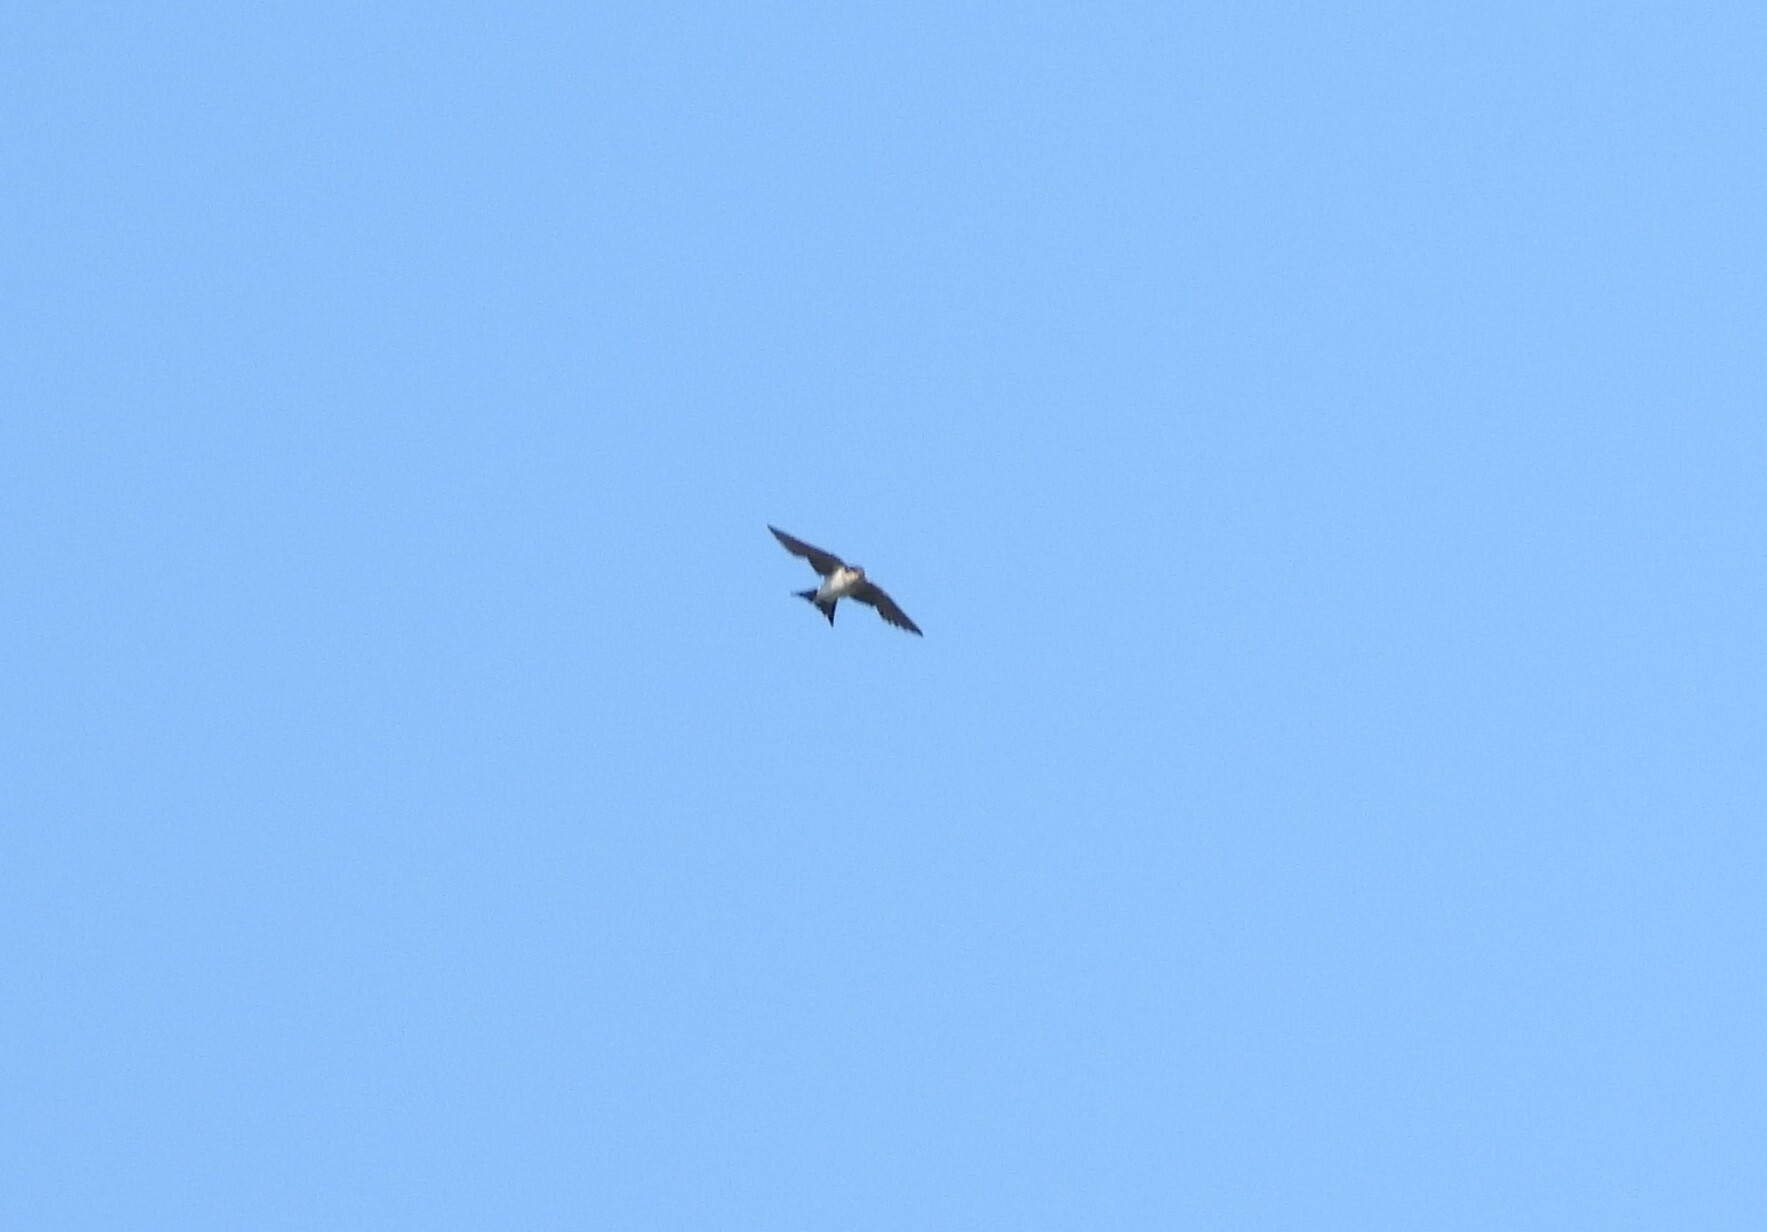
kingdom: Animalia
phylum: Chordata
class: Aves
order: Passeriformes
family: Hirundinidae
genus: Delichon
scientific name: Delichon urbicum
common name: Common house martin
